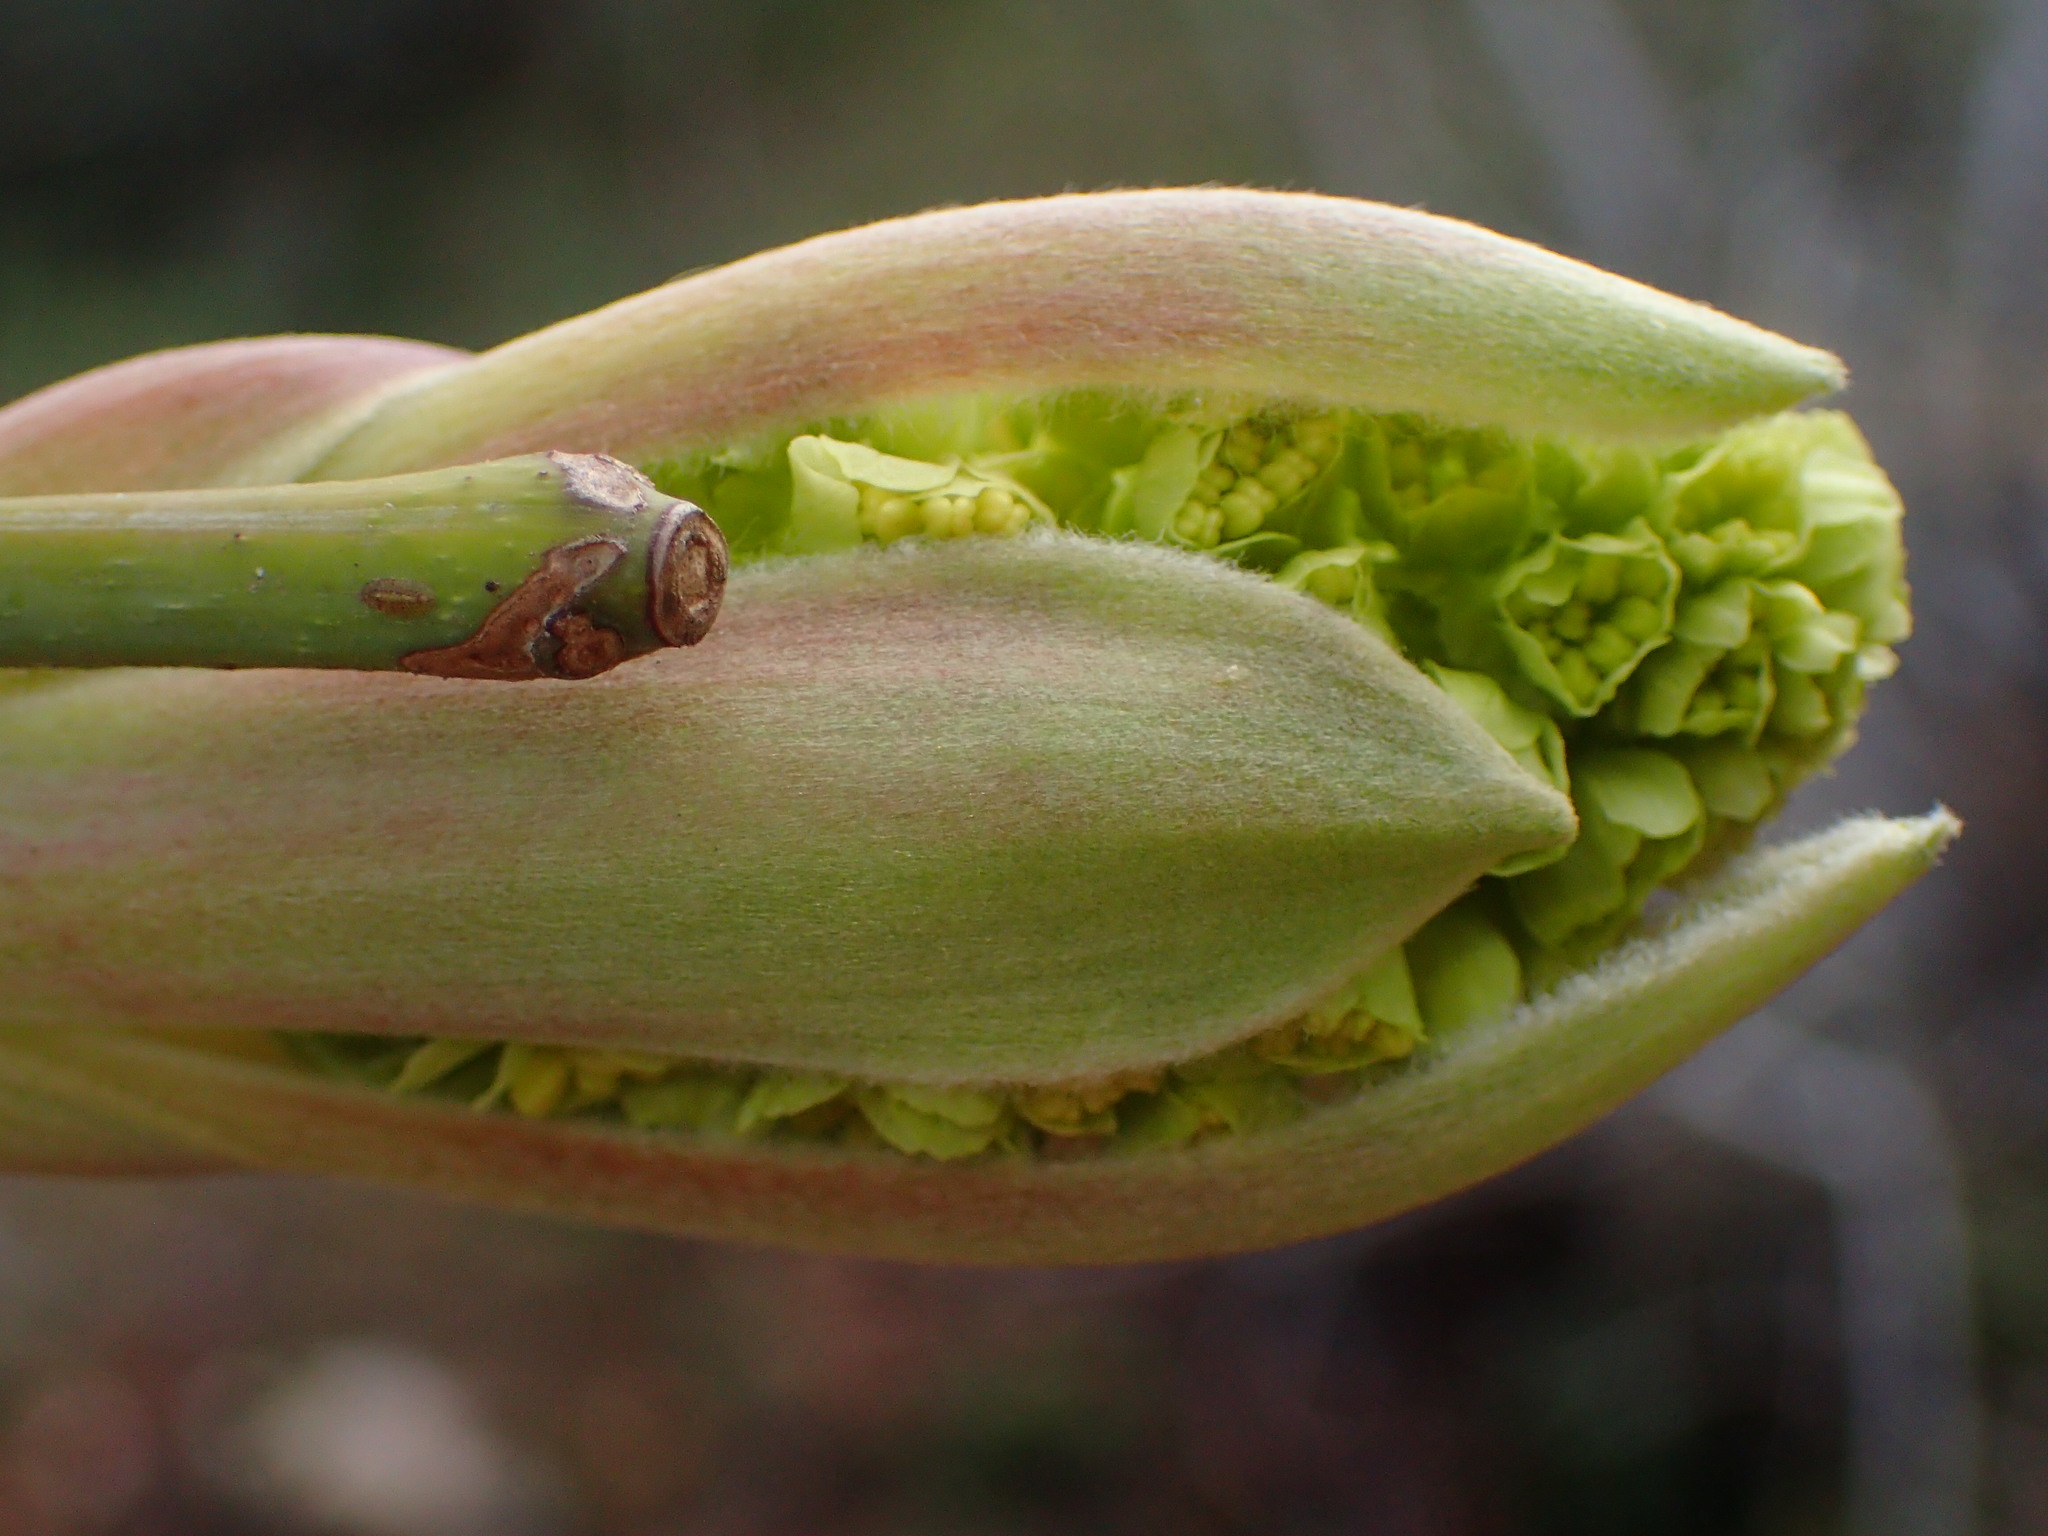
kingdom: Plantae
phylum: Tracheophyta
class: Magnoliopsida
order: Sapindales
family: Sapindaceae
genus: Acer
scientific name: Acer macrophyllum
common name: Oregon maple
